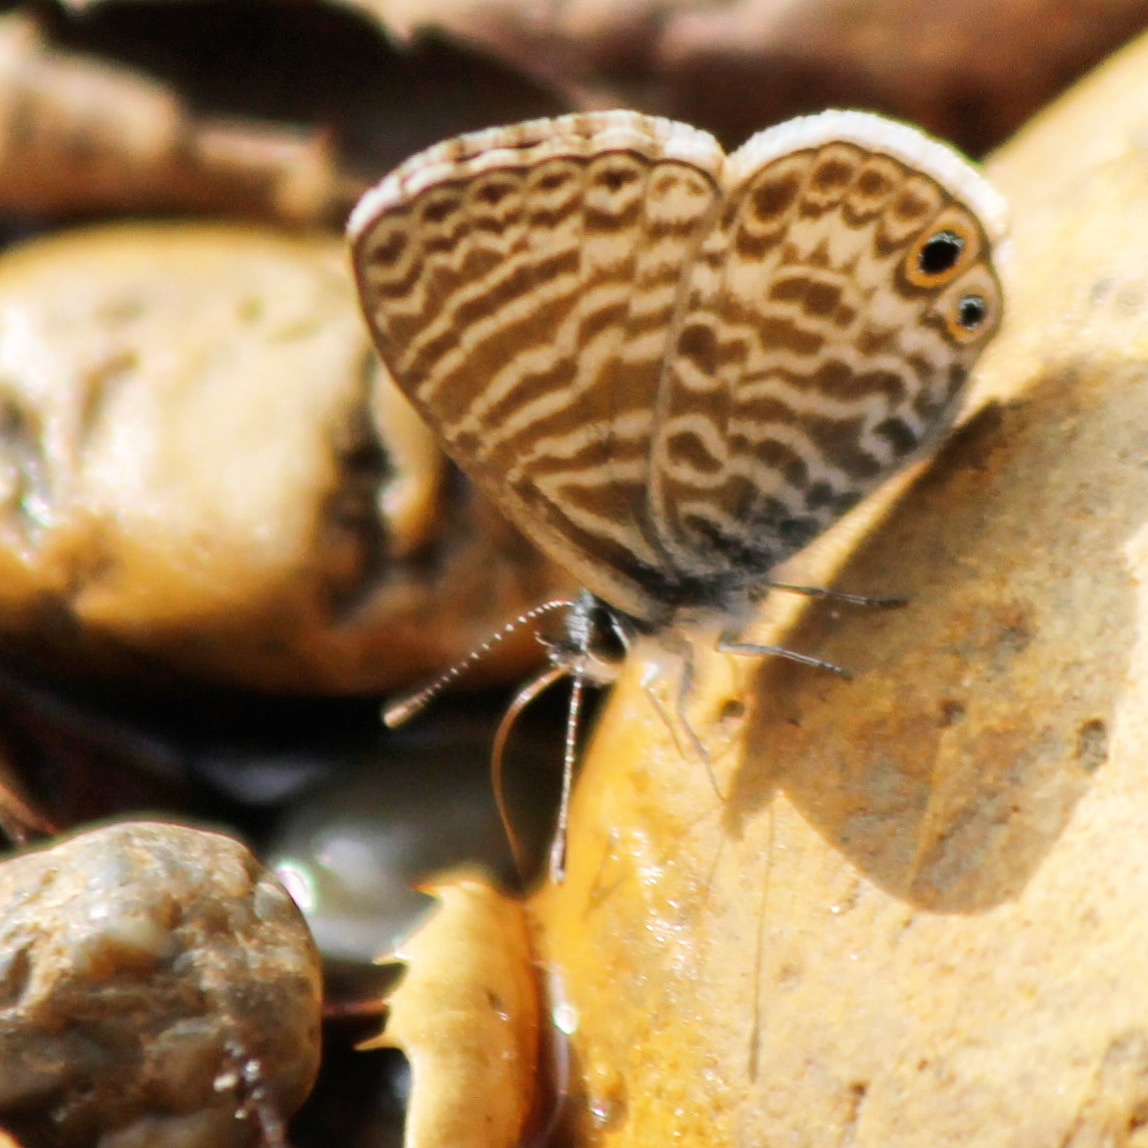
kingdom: Animalia
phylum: Arthropoda
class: Insecta
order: Lepidoptera
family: Lycaenidae
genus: Leptotes
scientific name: Leptotes marina
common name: Marine blue
